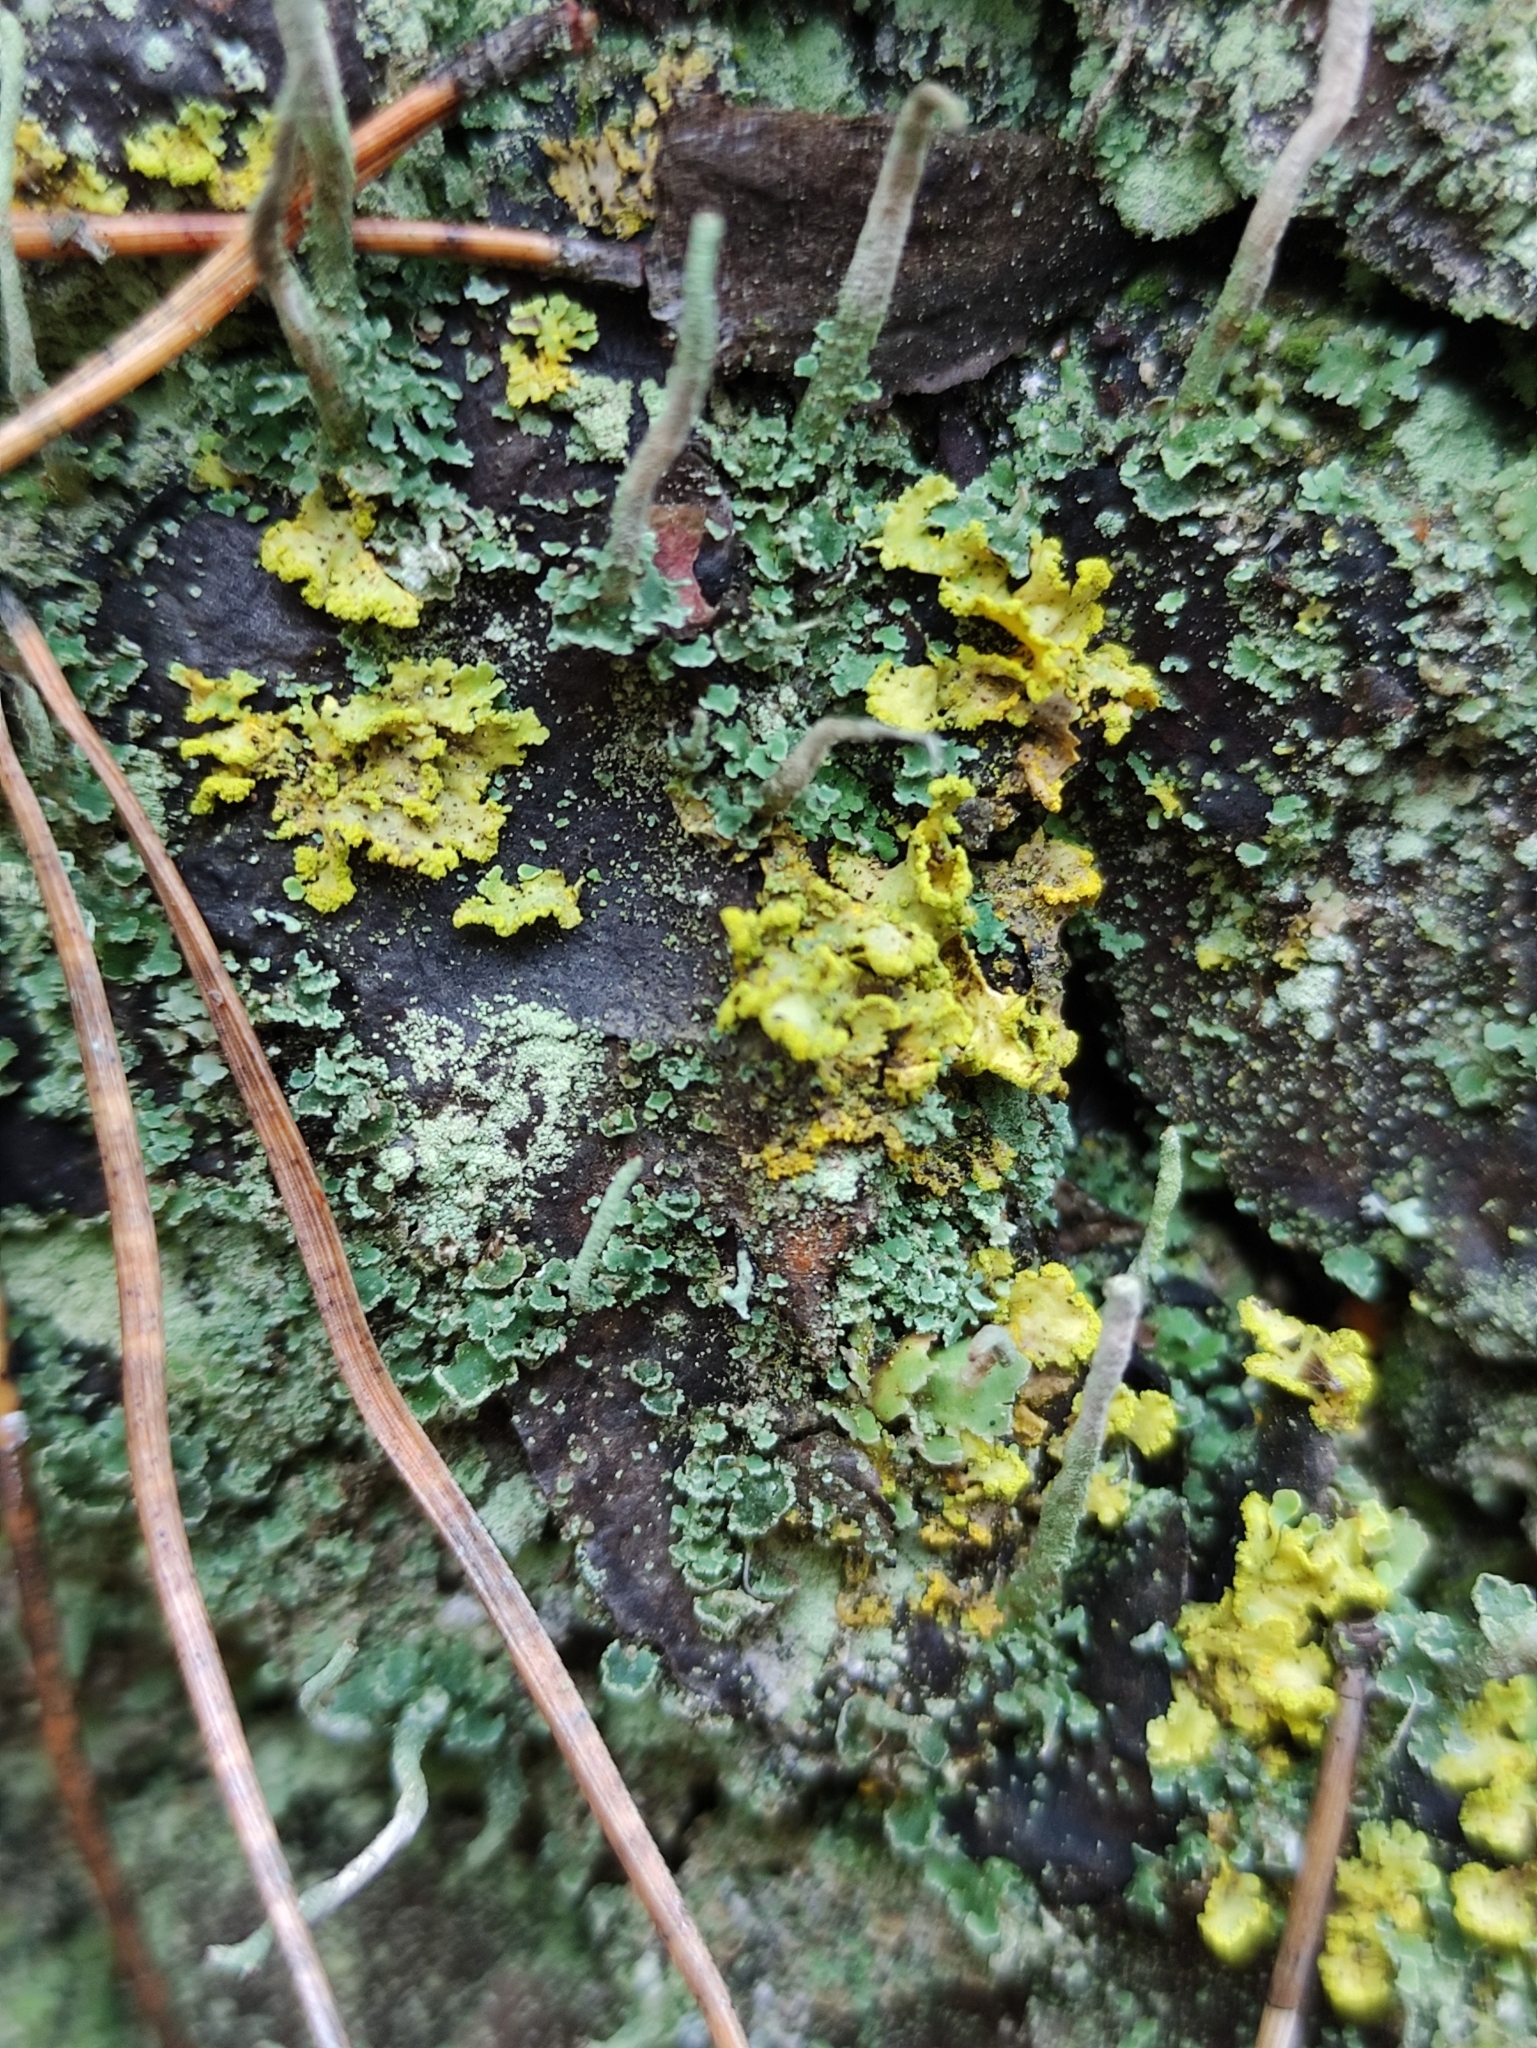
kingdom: Fungi
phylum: Ascomycota
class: Lecanoromycetes
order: Lecanorales
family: Parmeliaceae
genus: Vulpicida
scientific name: Vulpicida pinastri
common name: Powdered sunshine lichen
